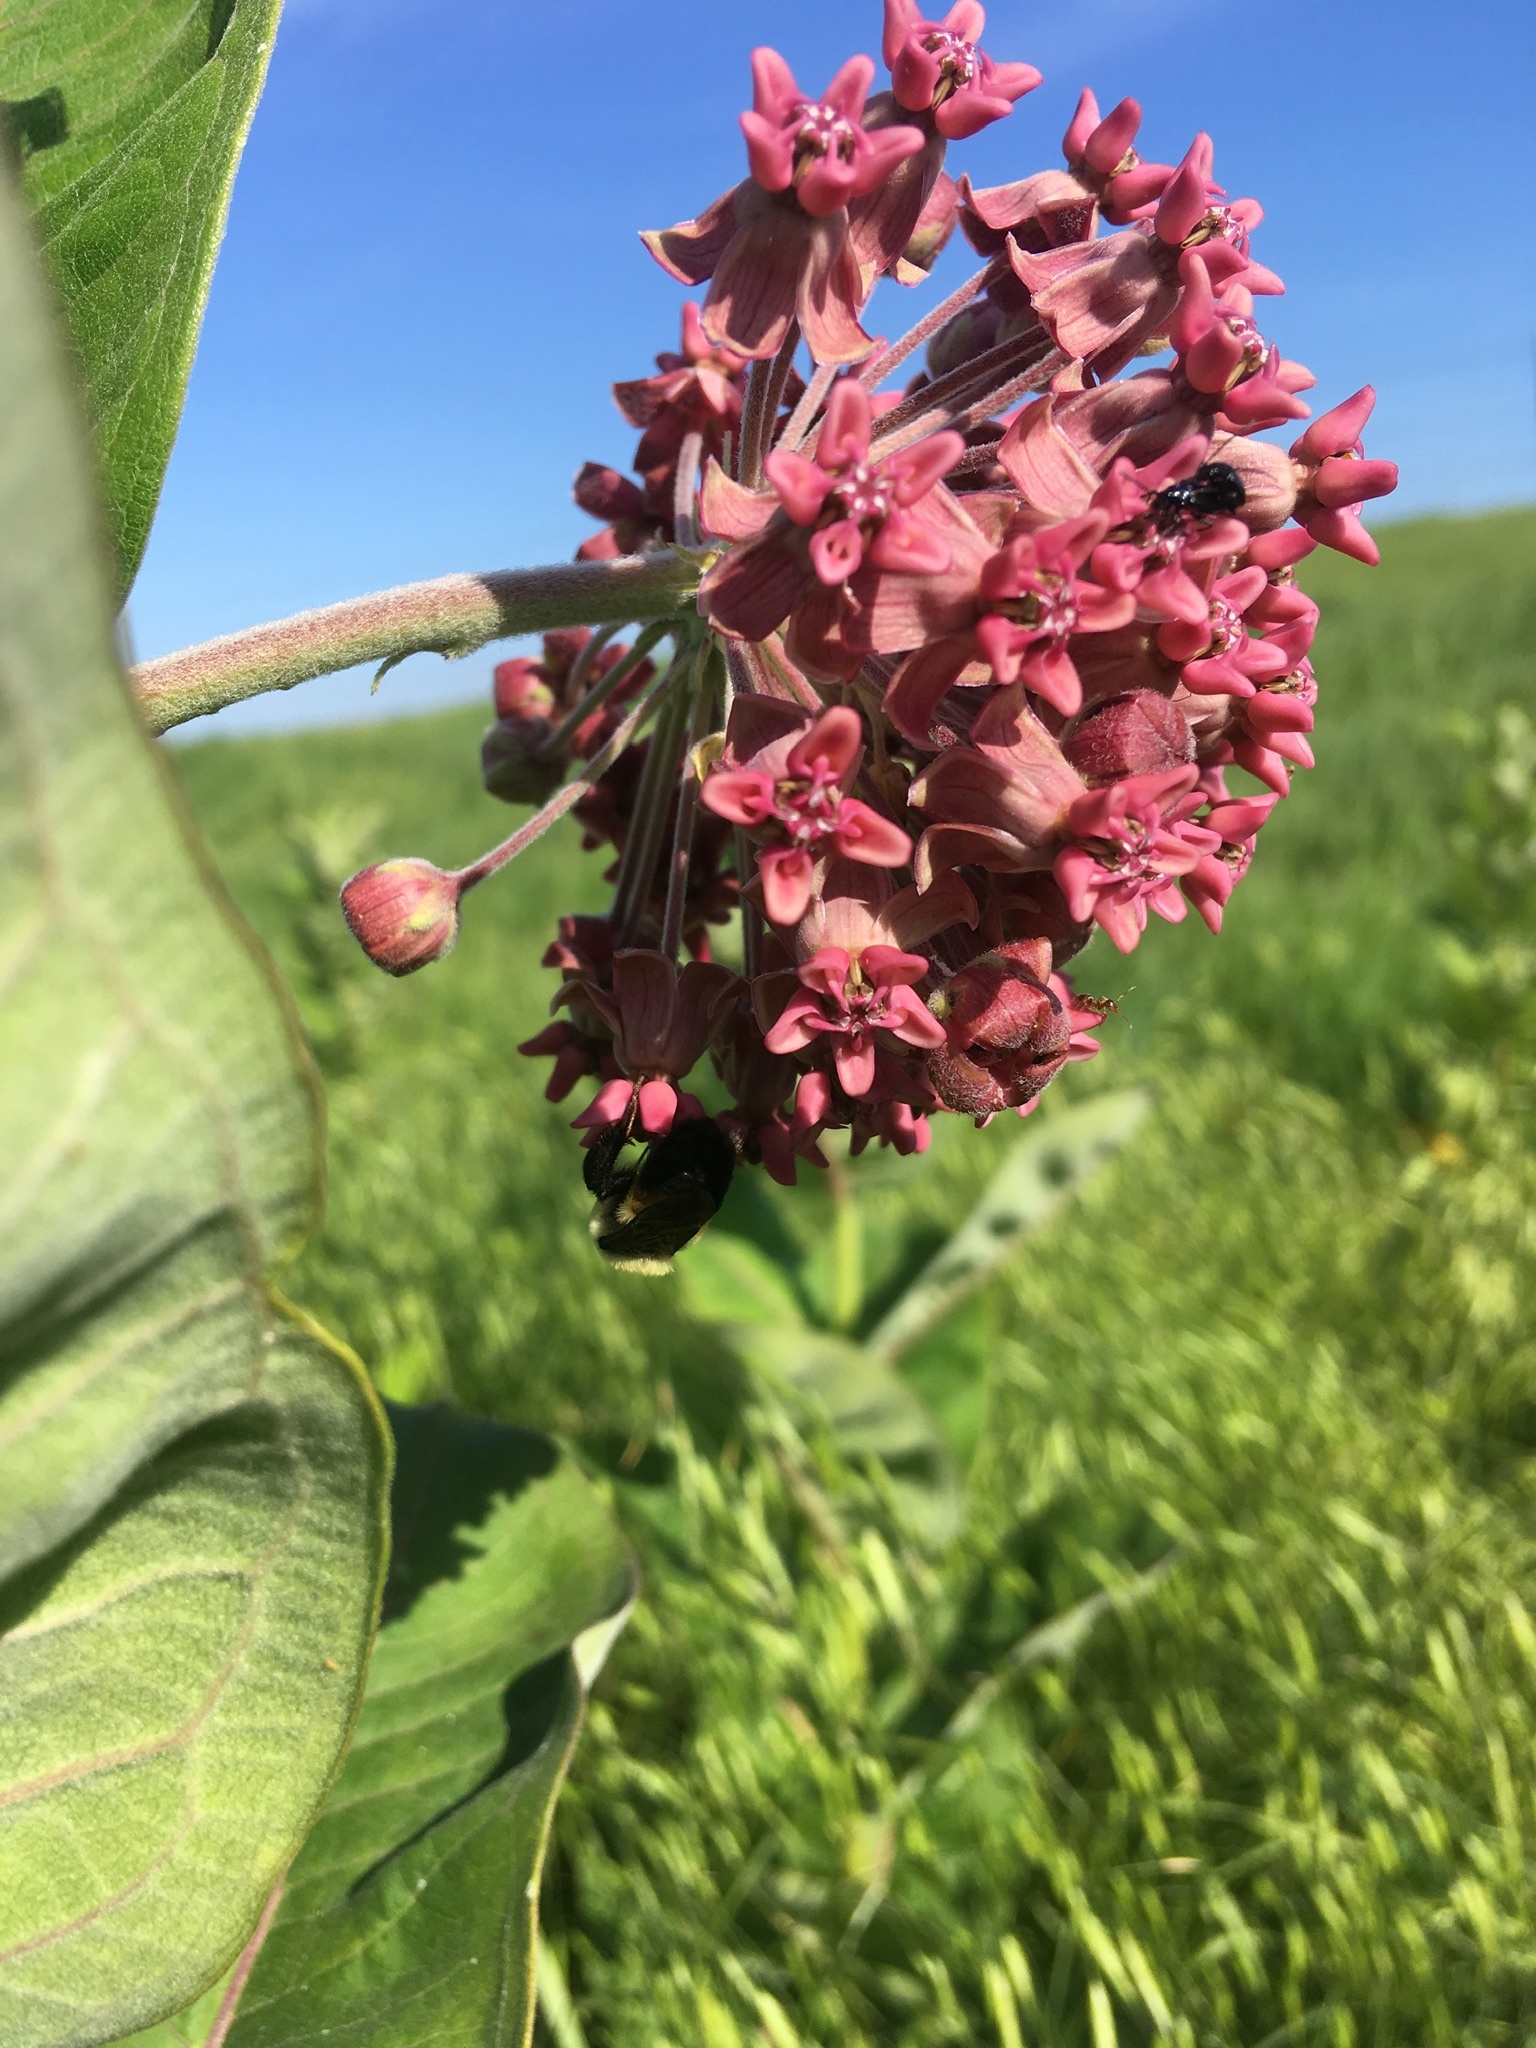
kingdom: Plantae
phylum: Tracheophyta
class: Magnoliopsida
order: Gentianales
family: Apocynaceae
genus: Asclepias
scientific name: Asclepias syriaca
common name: Common milkweed
